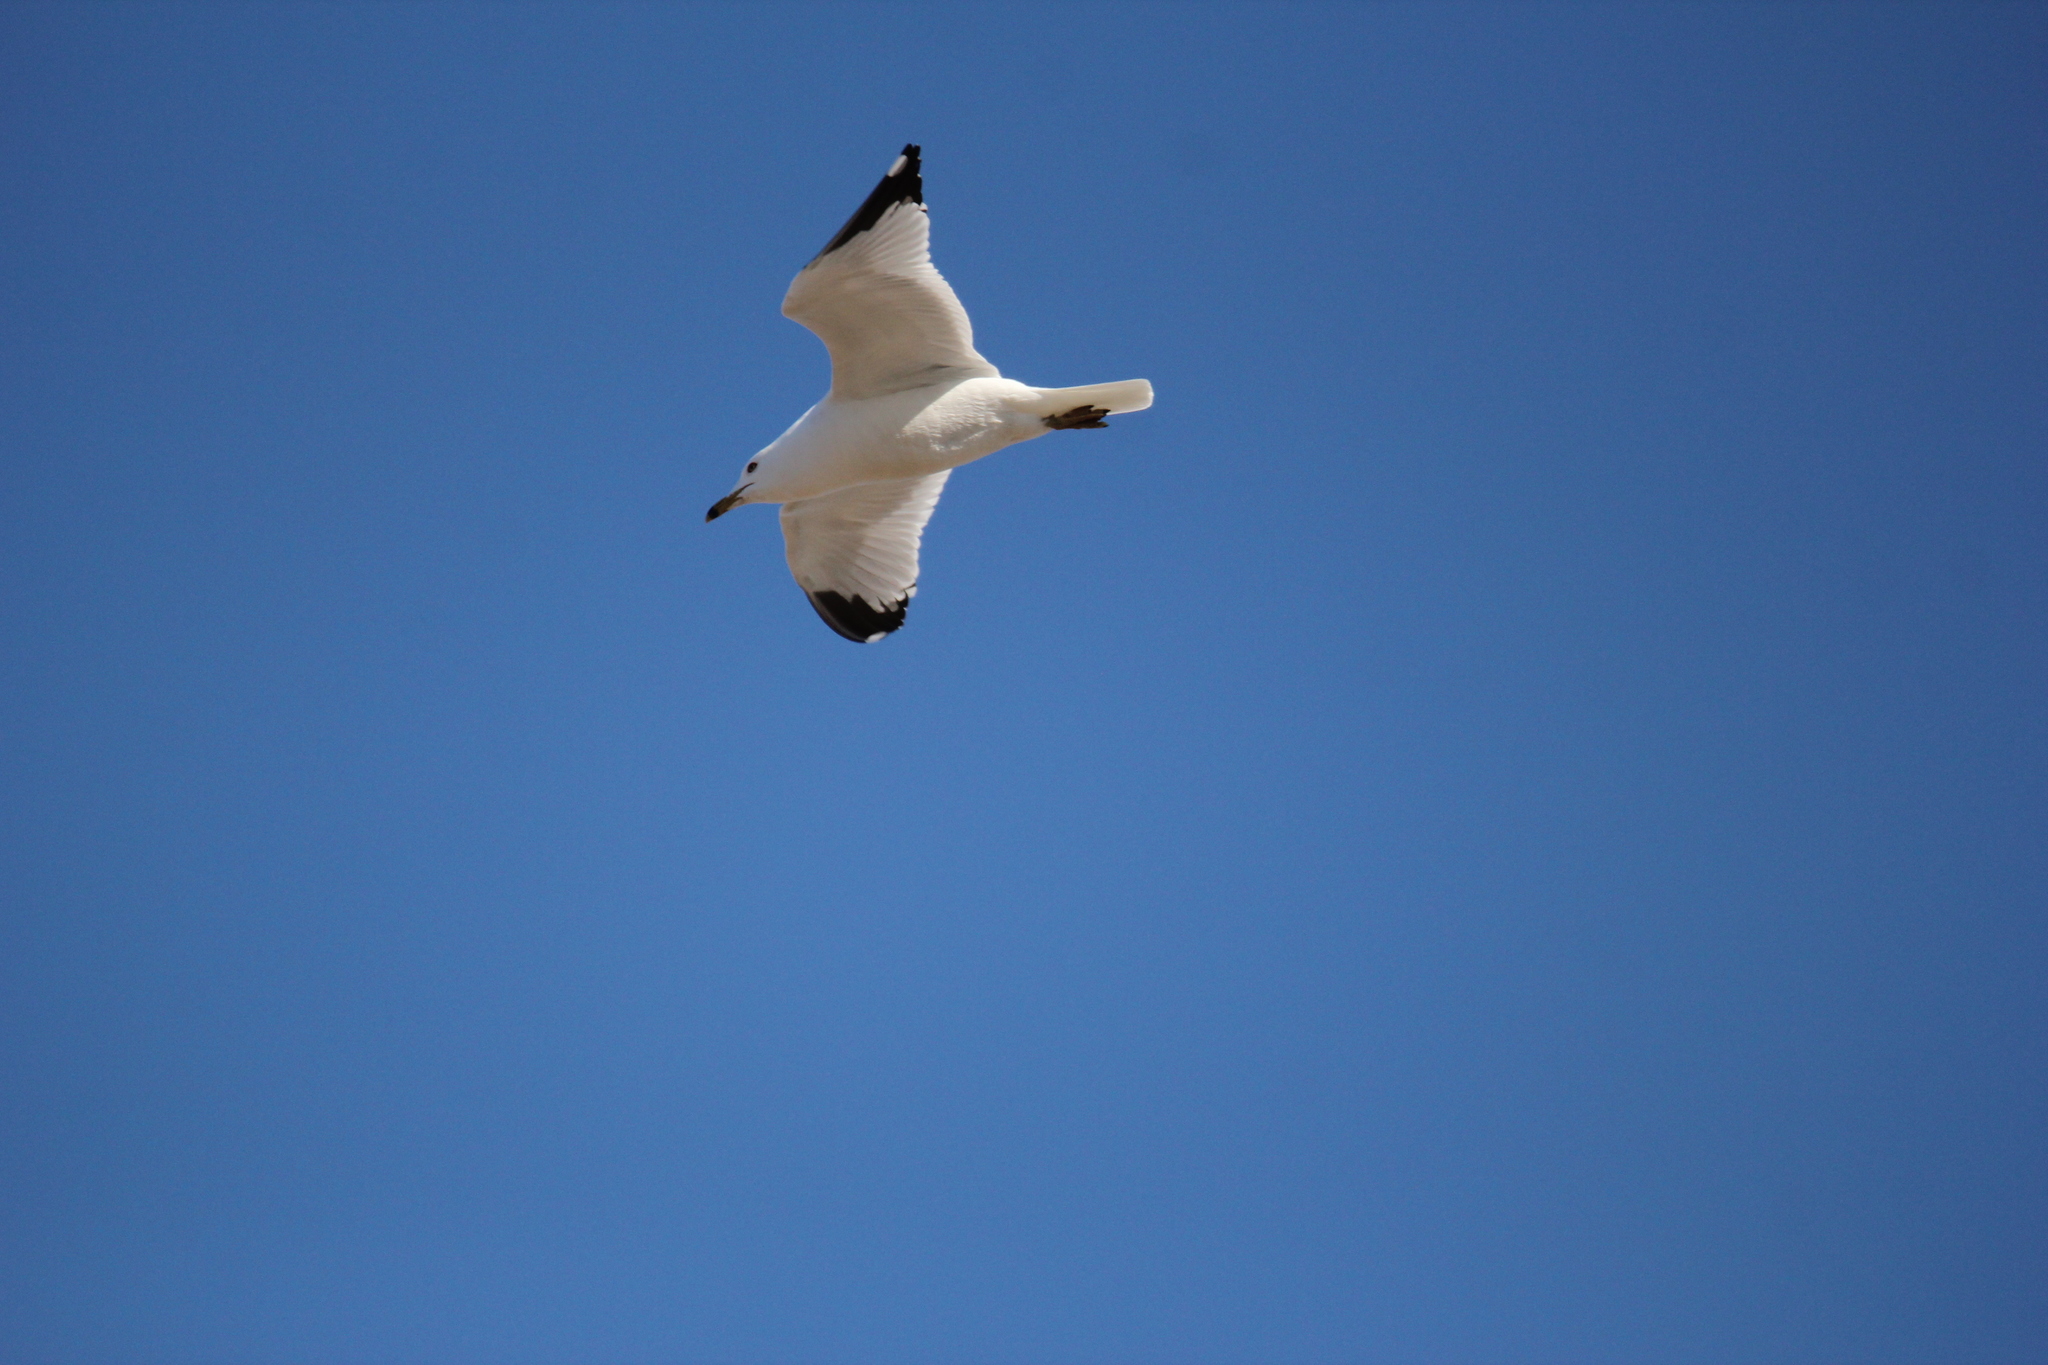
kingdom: Animalia
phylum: Chordata
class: Aves
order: Charadriiformes
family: Laridae
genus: Larus
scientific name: Larus delawarensis
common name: Ring-billed gull
